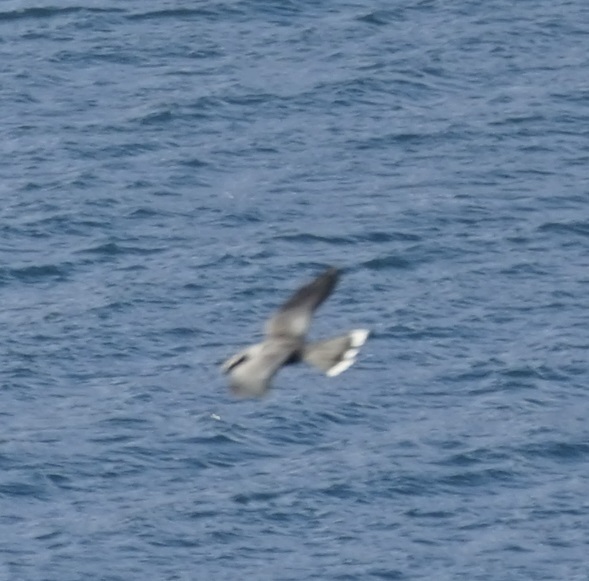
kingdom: Animalia
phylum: Chordata
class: Aves
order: Cuculiformes
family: Cuculidae
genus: Scythrops
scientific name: Scythrops novaehollandiae
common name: Channel-billed cuckoo
